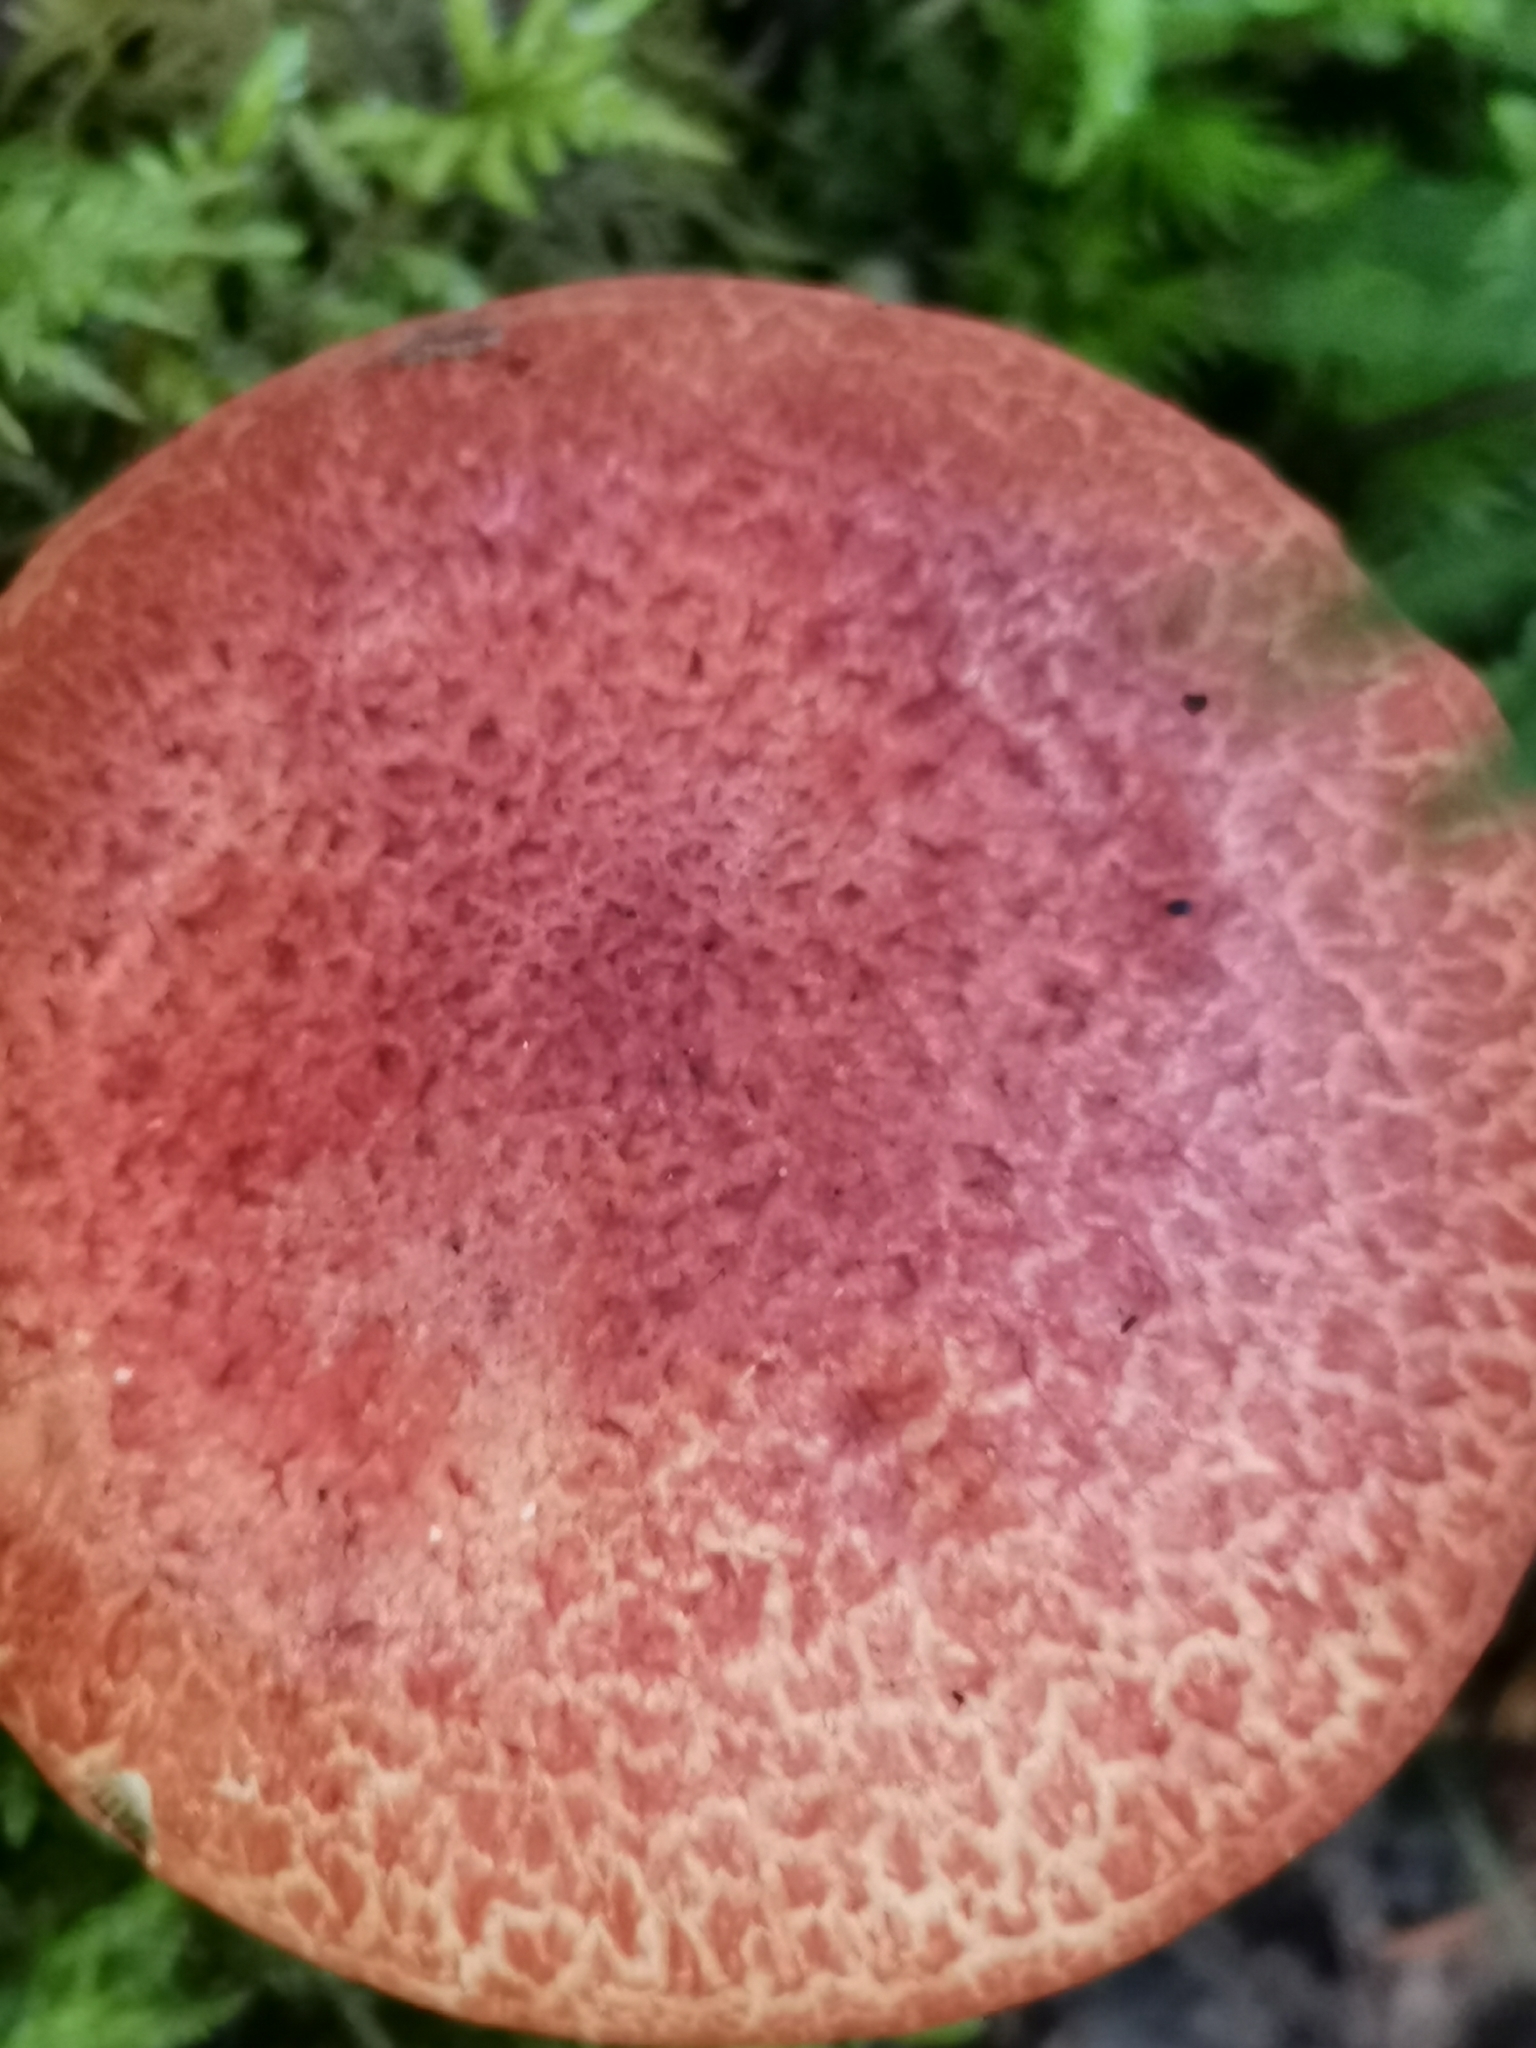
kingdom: Fungi
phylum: Basidiomycota
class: Agaricomycetes
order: Agaricales
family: Cortinariaceae
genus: Cortinarius
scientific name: Cortinarius bolaris
